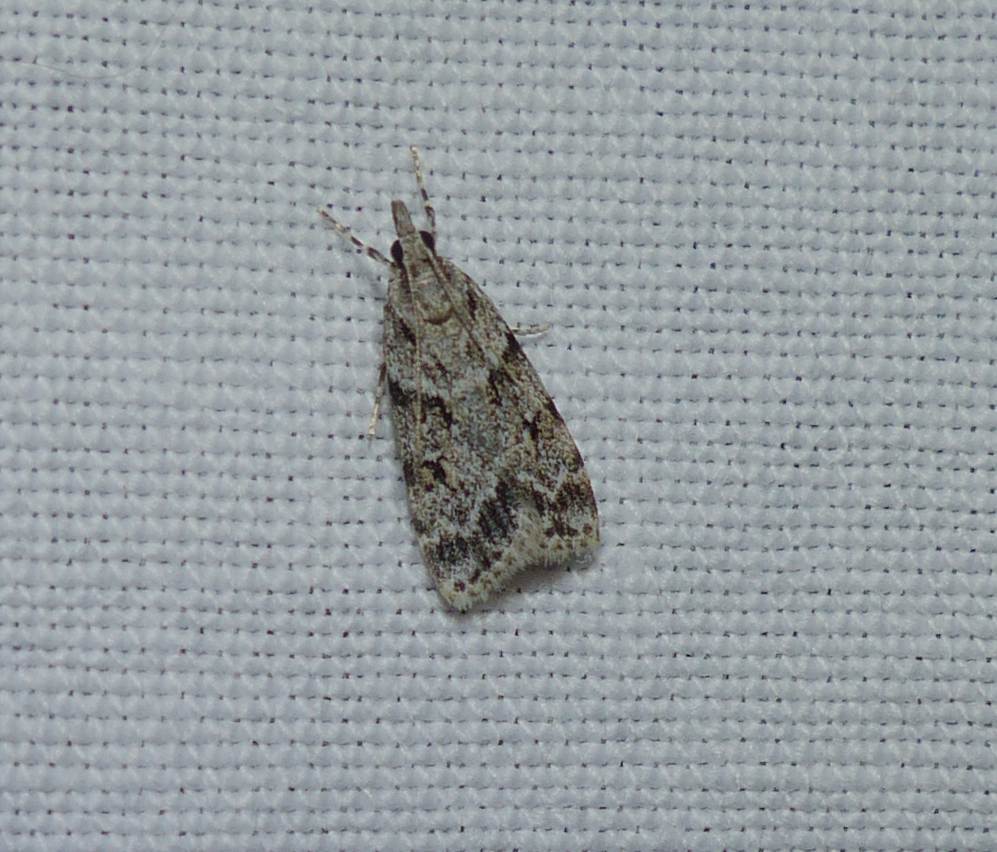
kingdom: Animalia
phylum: Arthropoda
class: Insecta
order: Lepidoptera
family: Crambidae
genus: Scoparia
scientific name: Scoparia biplagialis
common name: Double-striped scoparia moth
